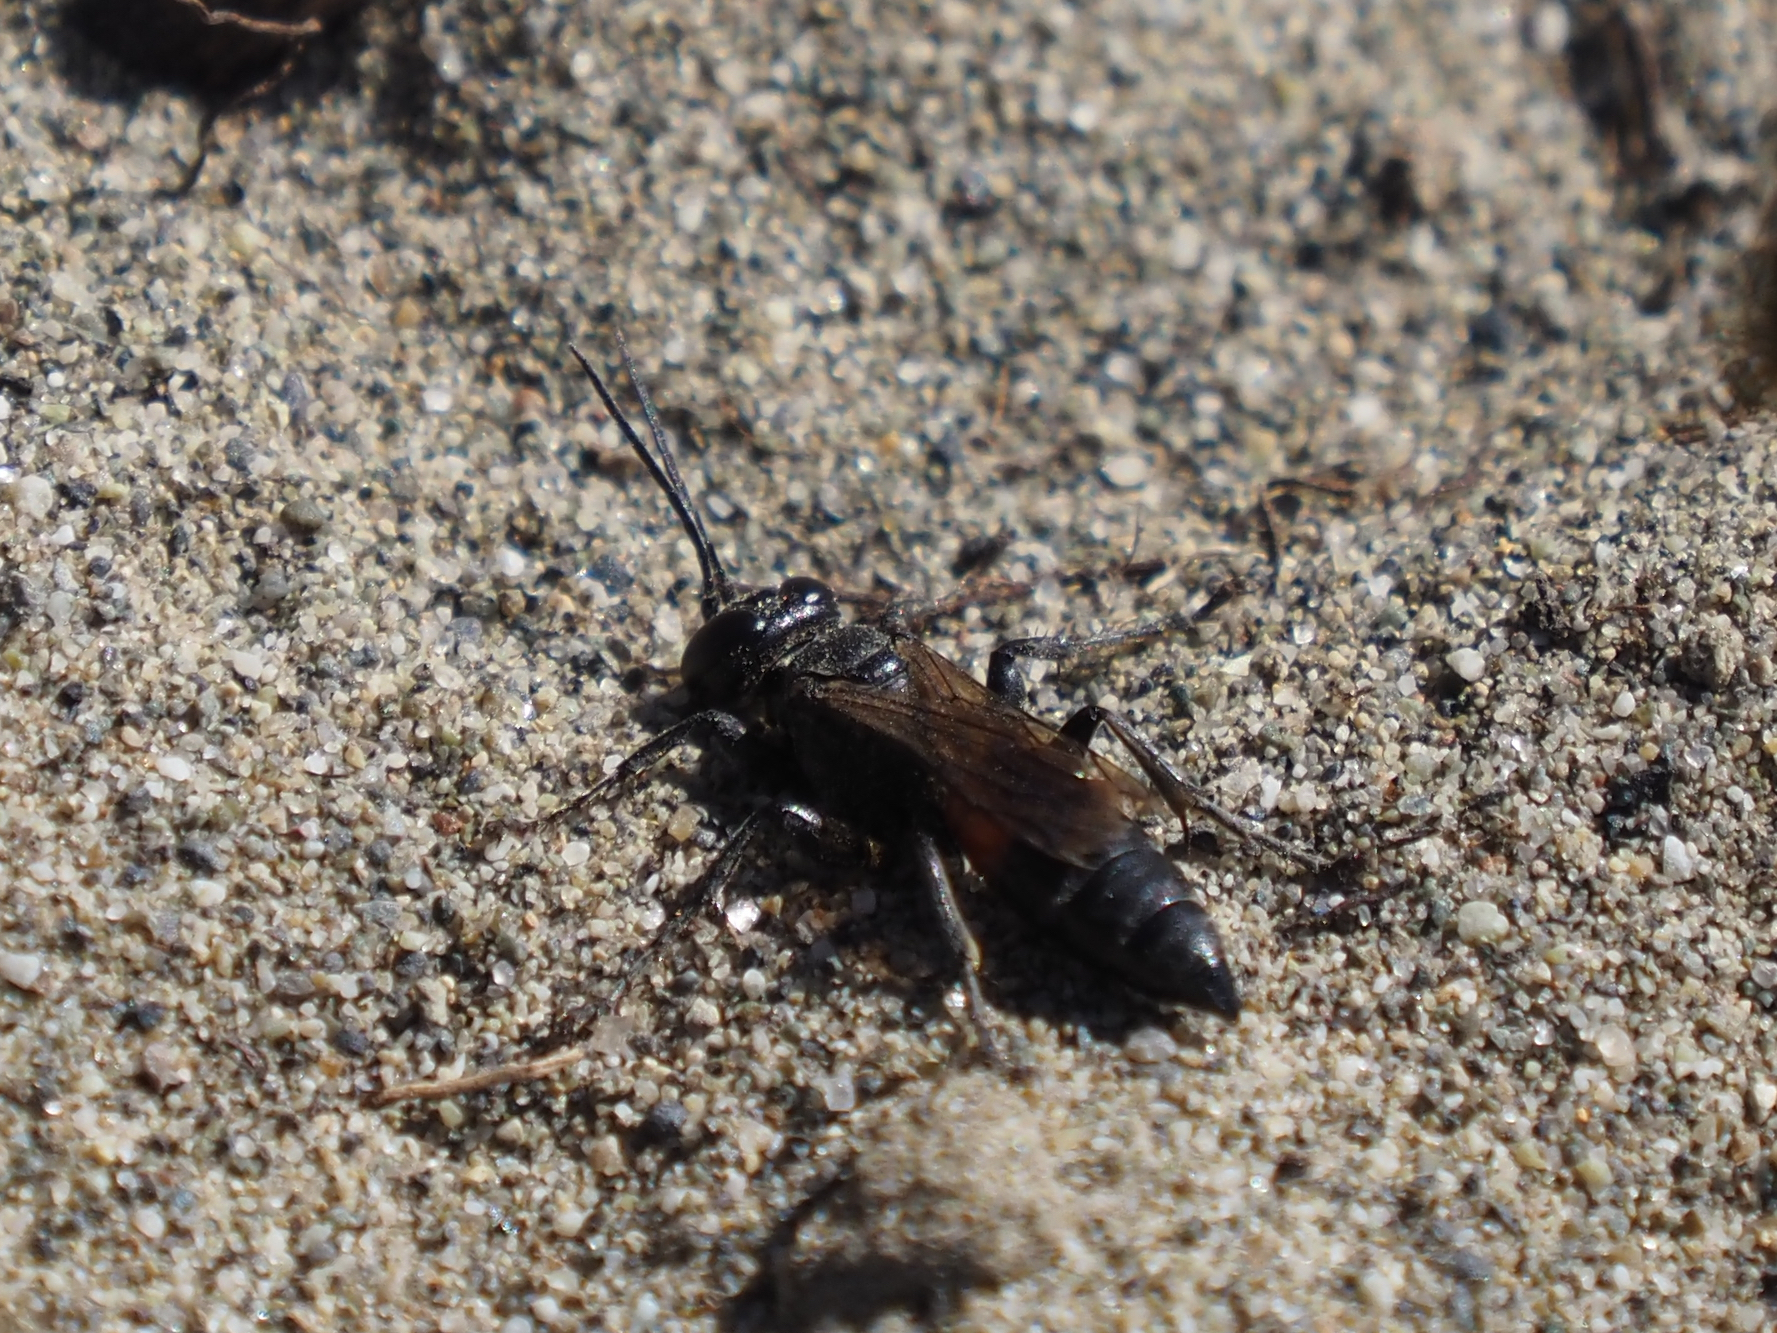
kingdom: Animalia
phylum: Arthropoda
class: Insecta
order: Hymenoptera
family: Crabronidae
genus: Tachysphex
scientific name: Tachysphex pompiliformis
